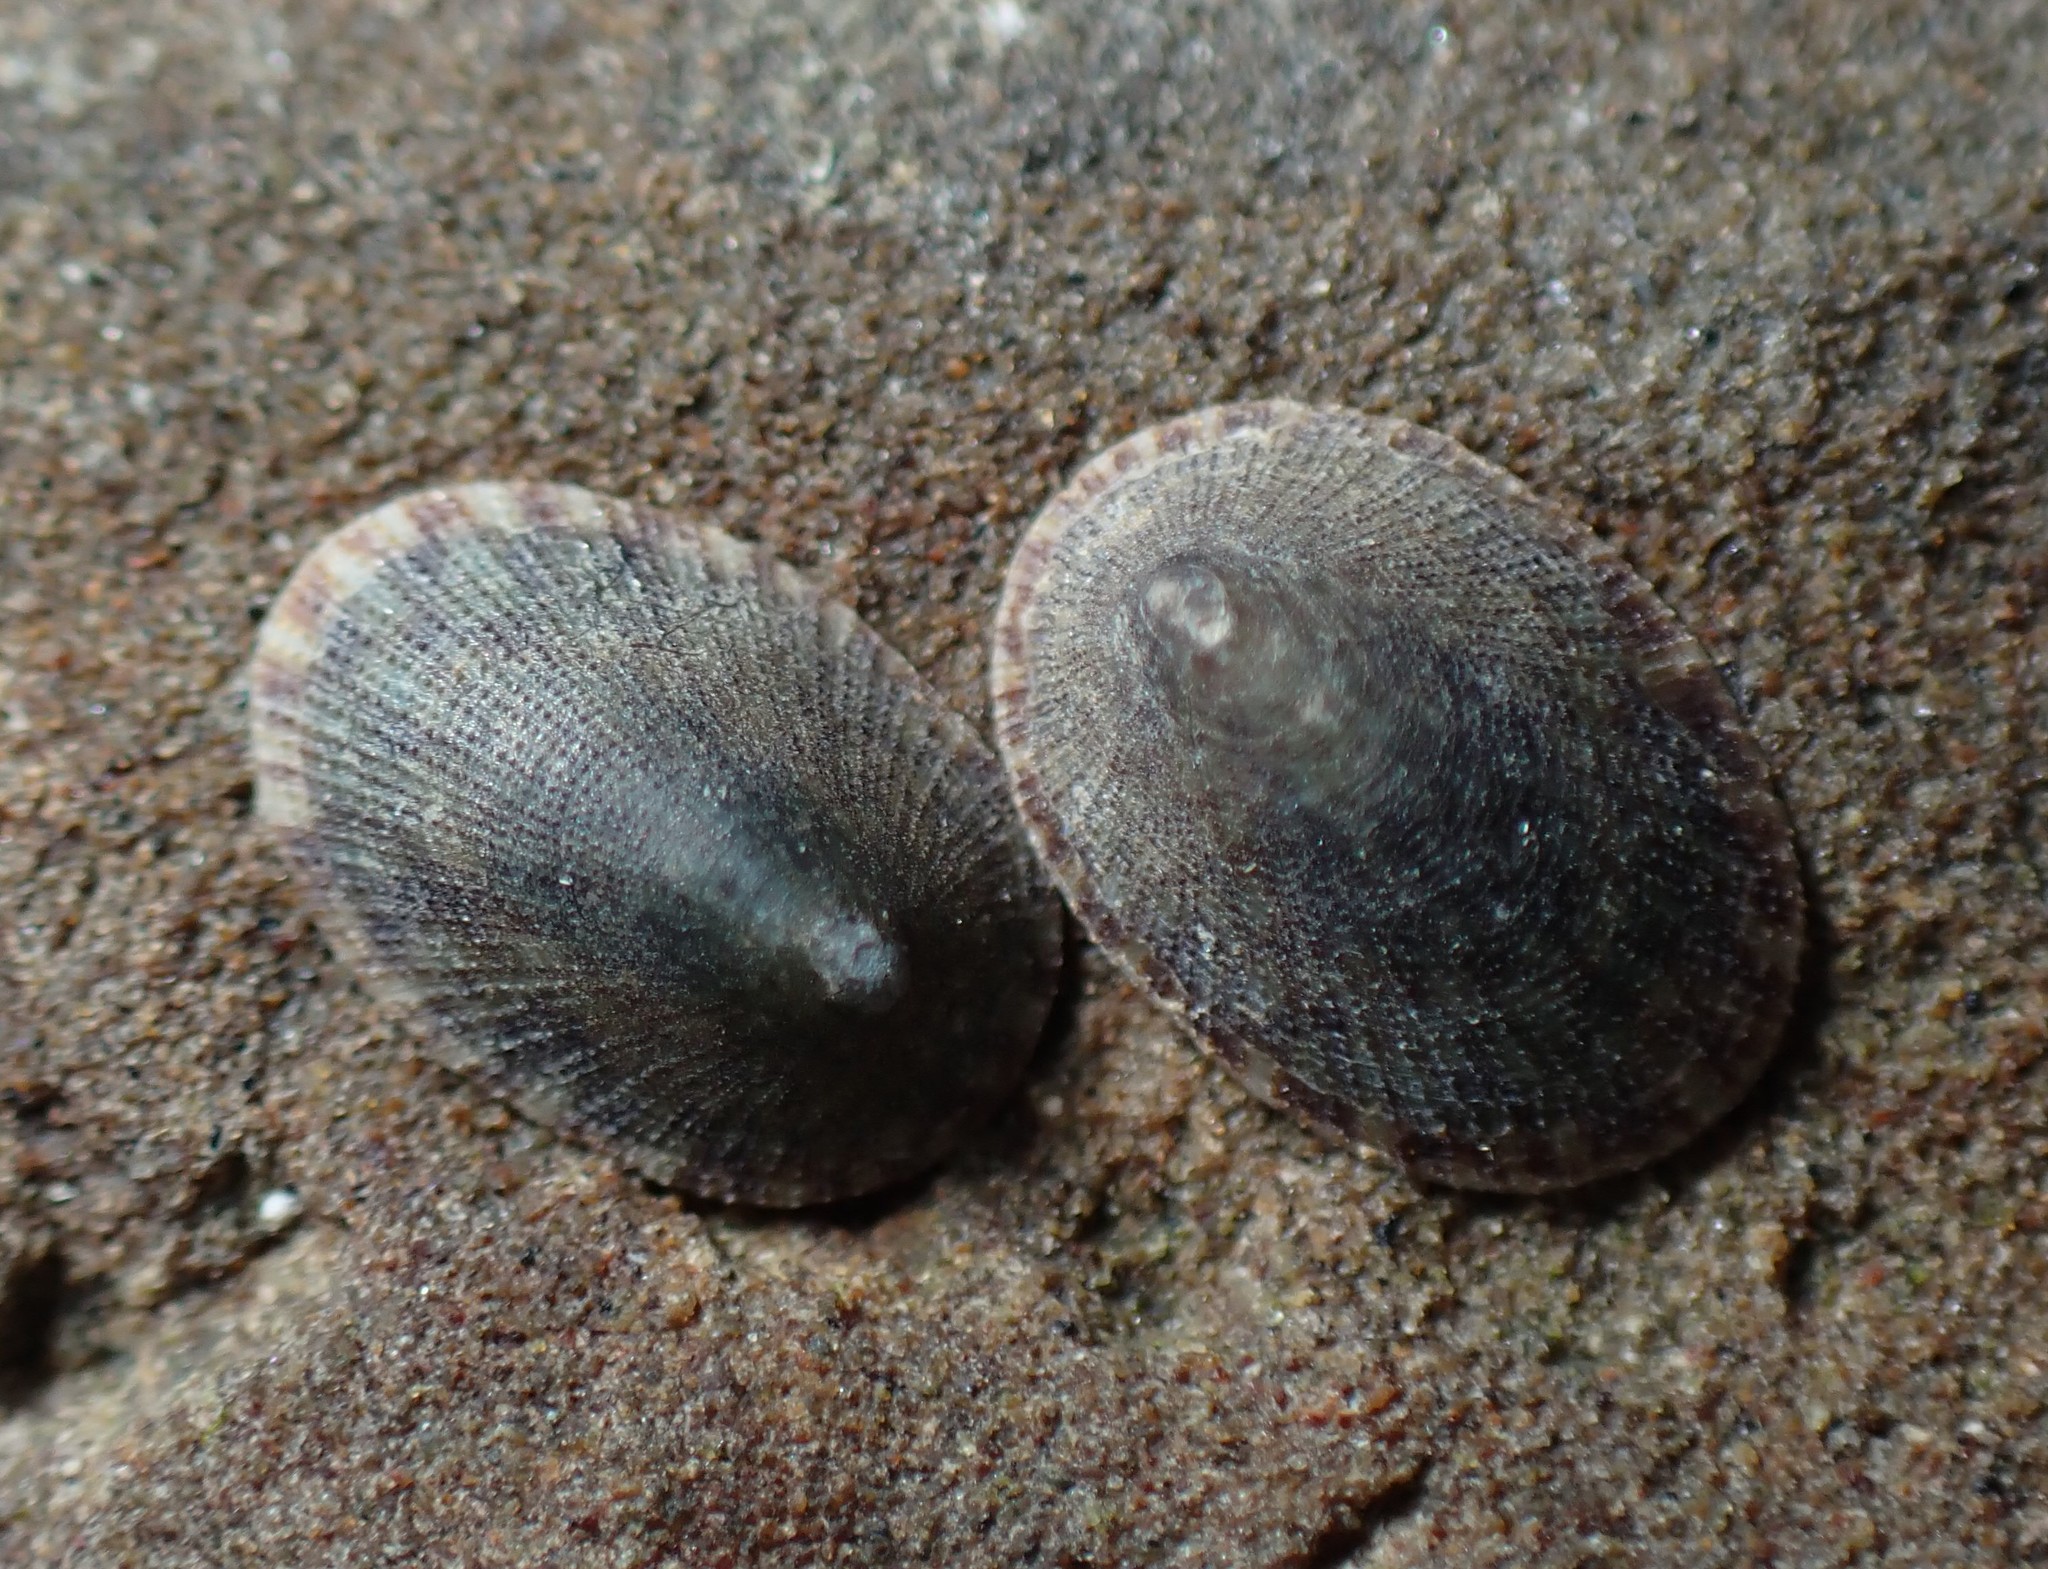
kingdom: Animalia
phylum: Mollusca
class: Gastropoda
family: Lottiidae
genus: Notoacmea
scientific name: Notoacmea
